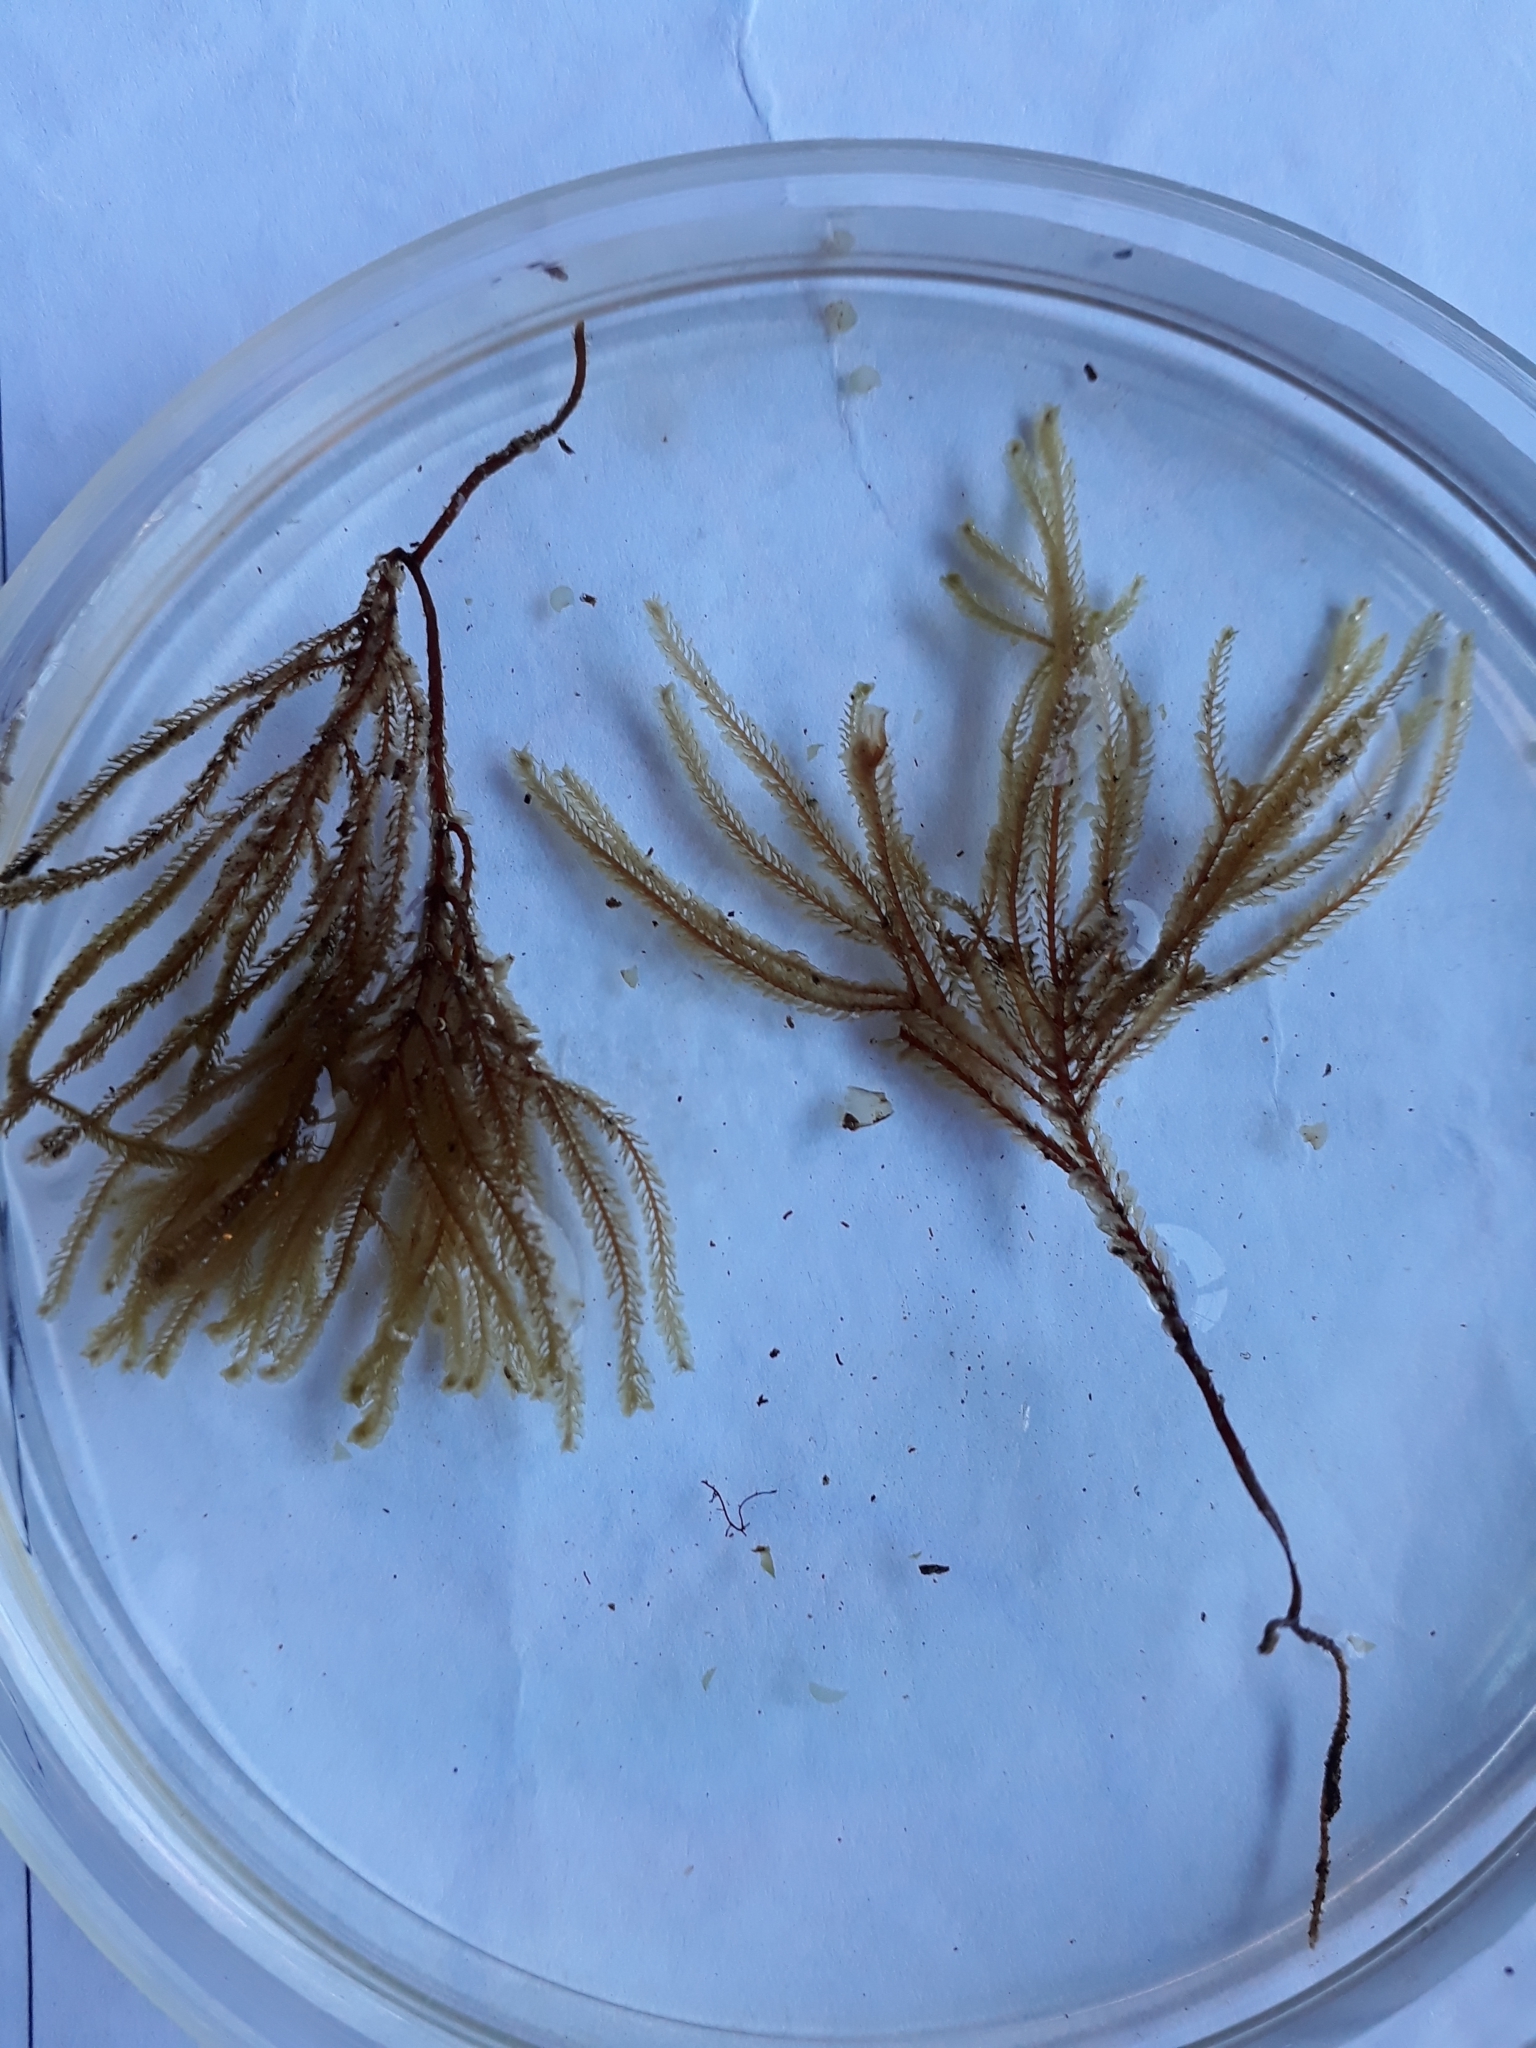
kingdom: Plantae
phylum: Marchantiophyta
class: Jungermanniopsida
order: Jungermanniales
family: Plagiochilaceae
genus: Plagiochila
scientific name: Plagiochila ramosissima
